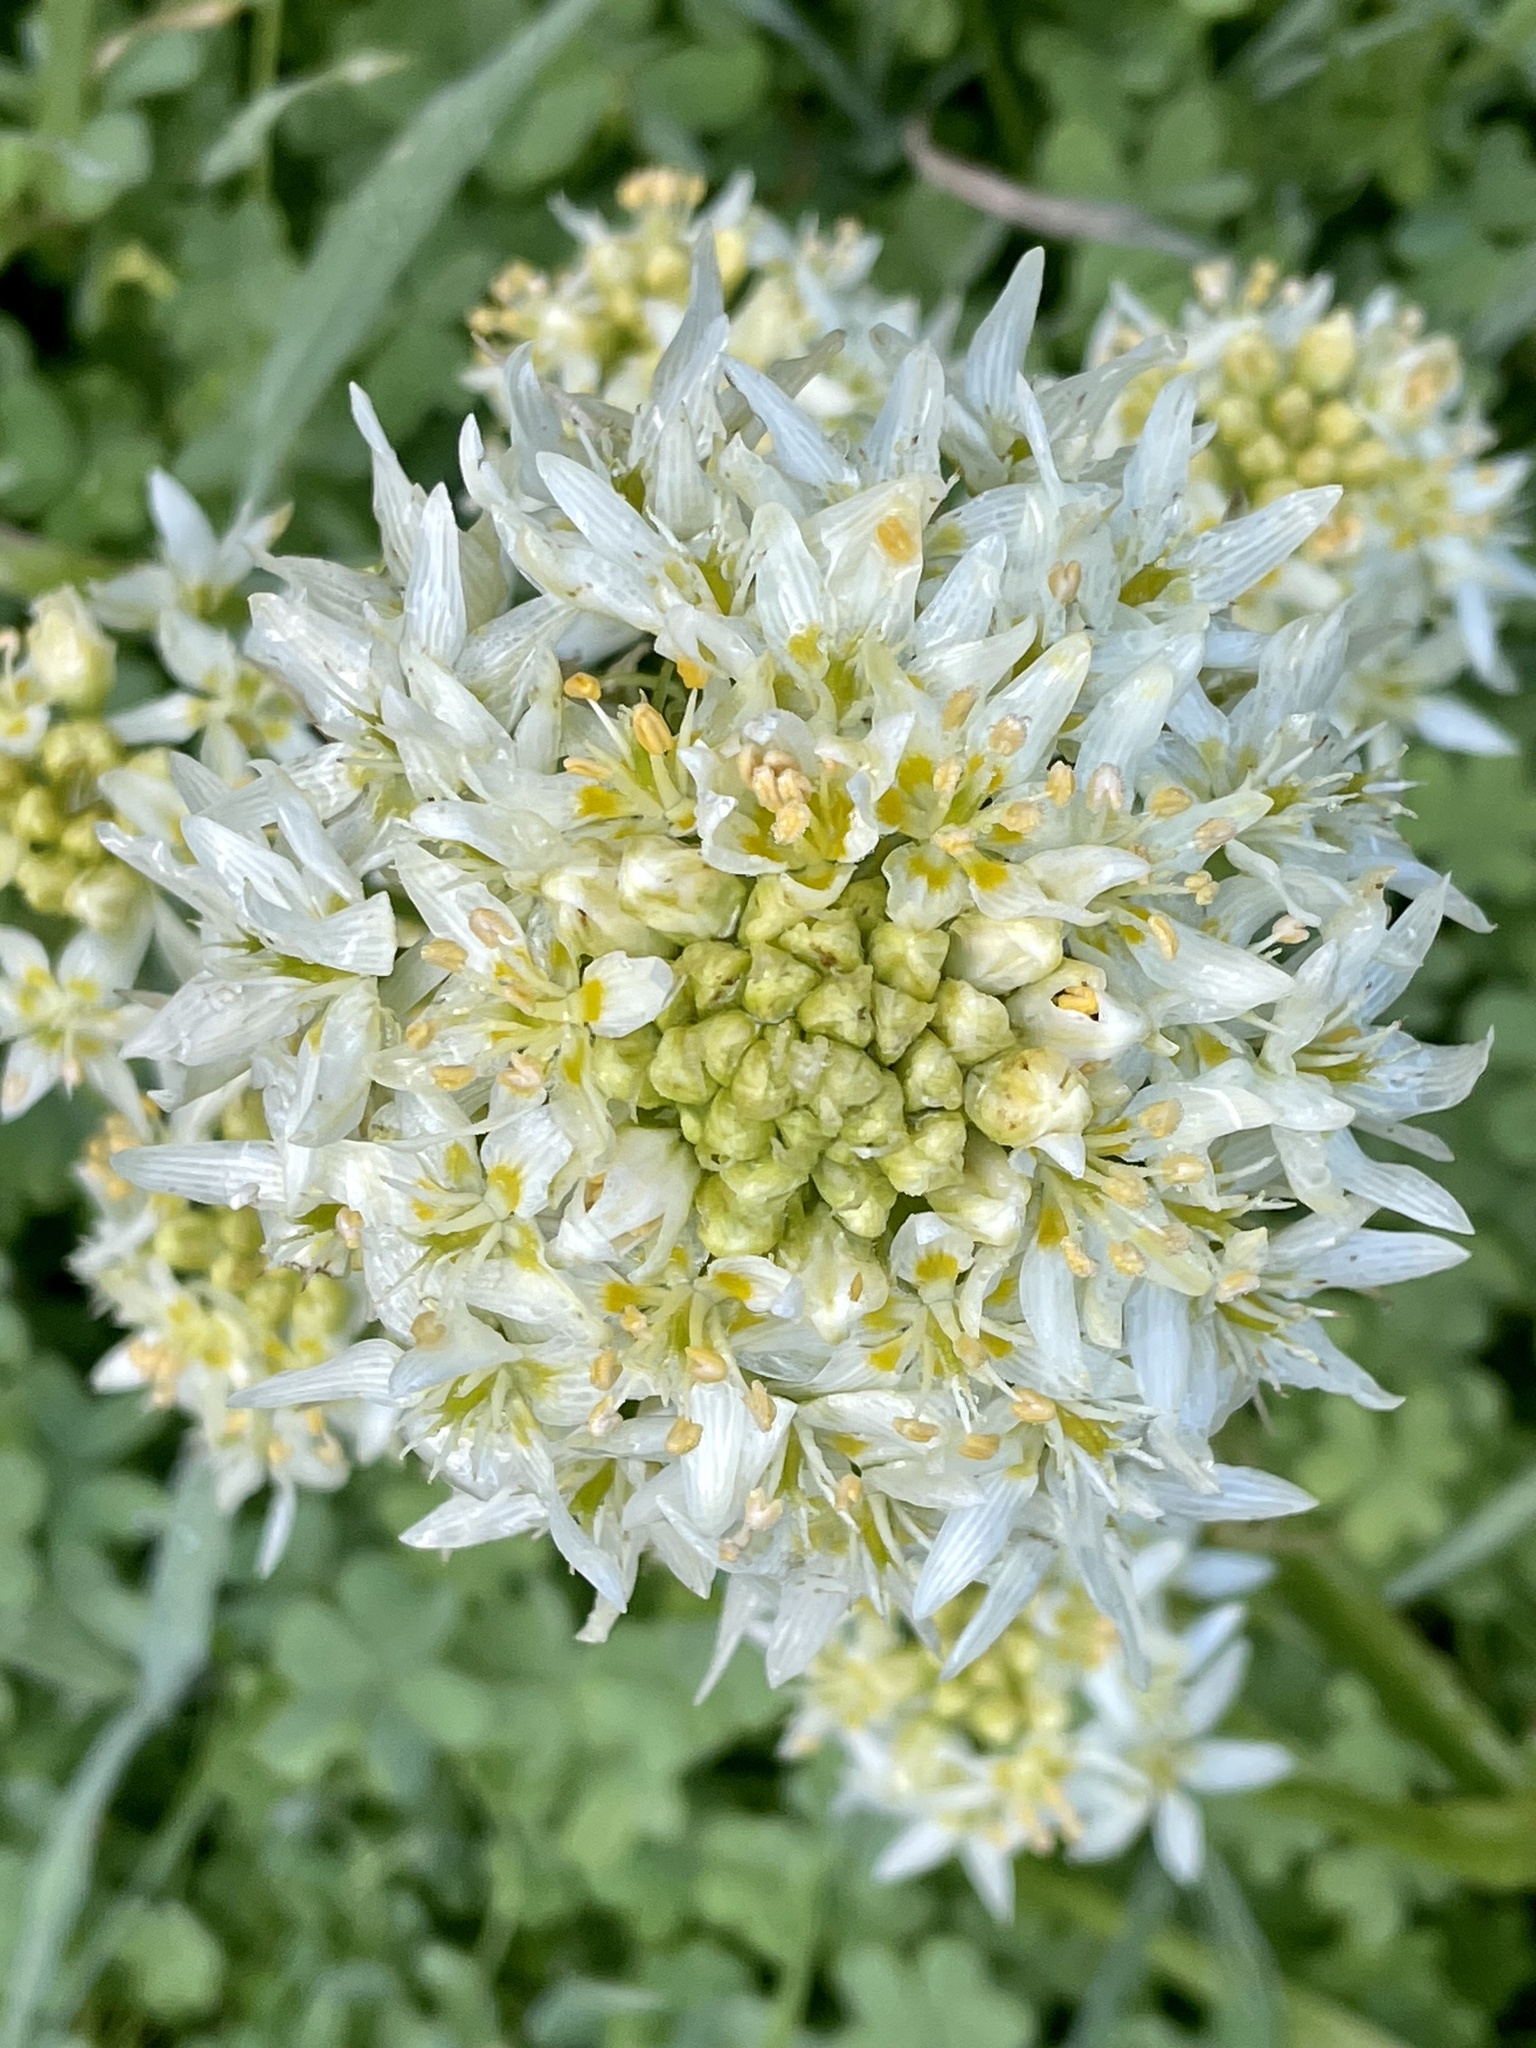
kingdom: Plantae
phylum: Tracheophyta
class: Liliopsida
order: Liliales
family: Melanthiaceae
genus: Toxicoscordion
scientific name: Toxicoscordion fremontii
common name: Fremont's death camas
